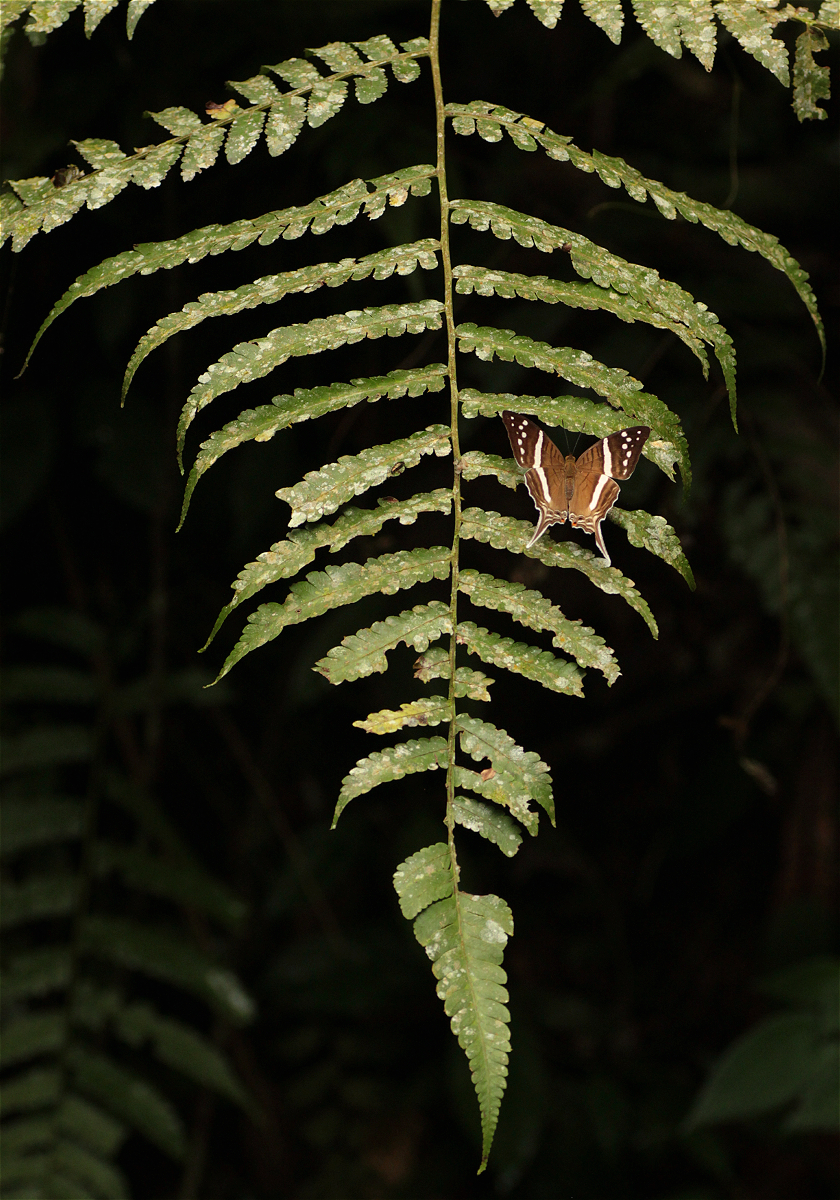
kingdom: Animalia
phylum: Arthropoda
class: Insecta
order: Lepidoptera
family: Nymphalidae
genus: Marpesia
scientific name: Marpesia crethon
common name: Crethon daggerwing
